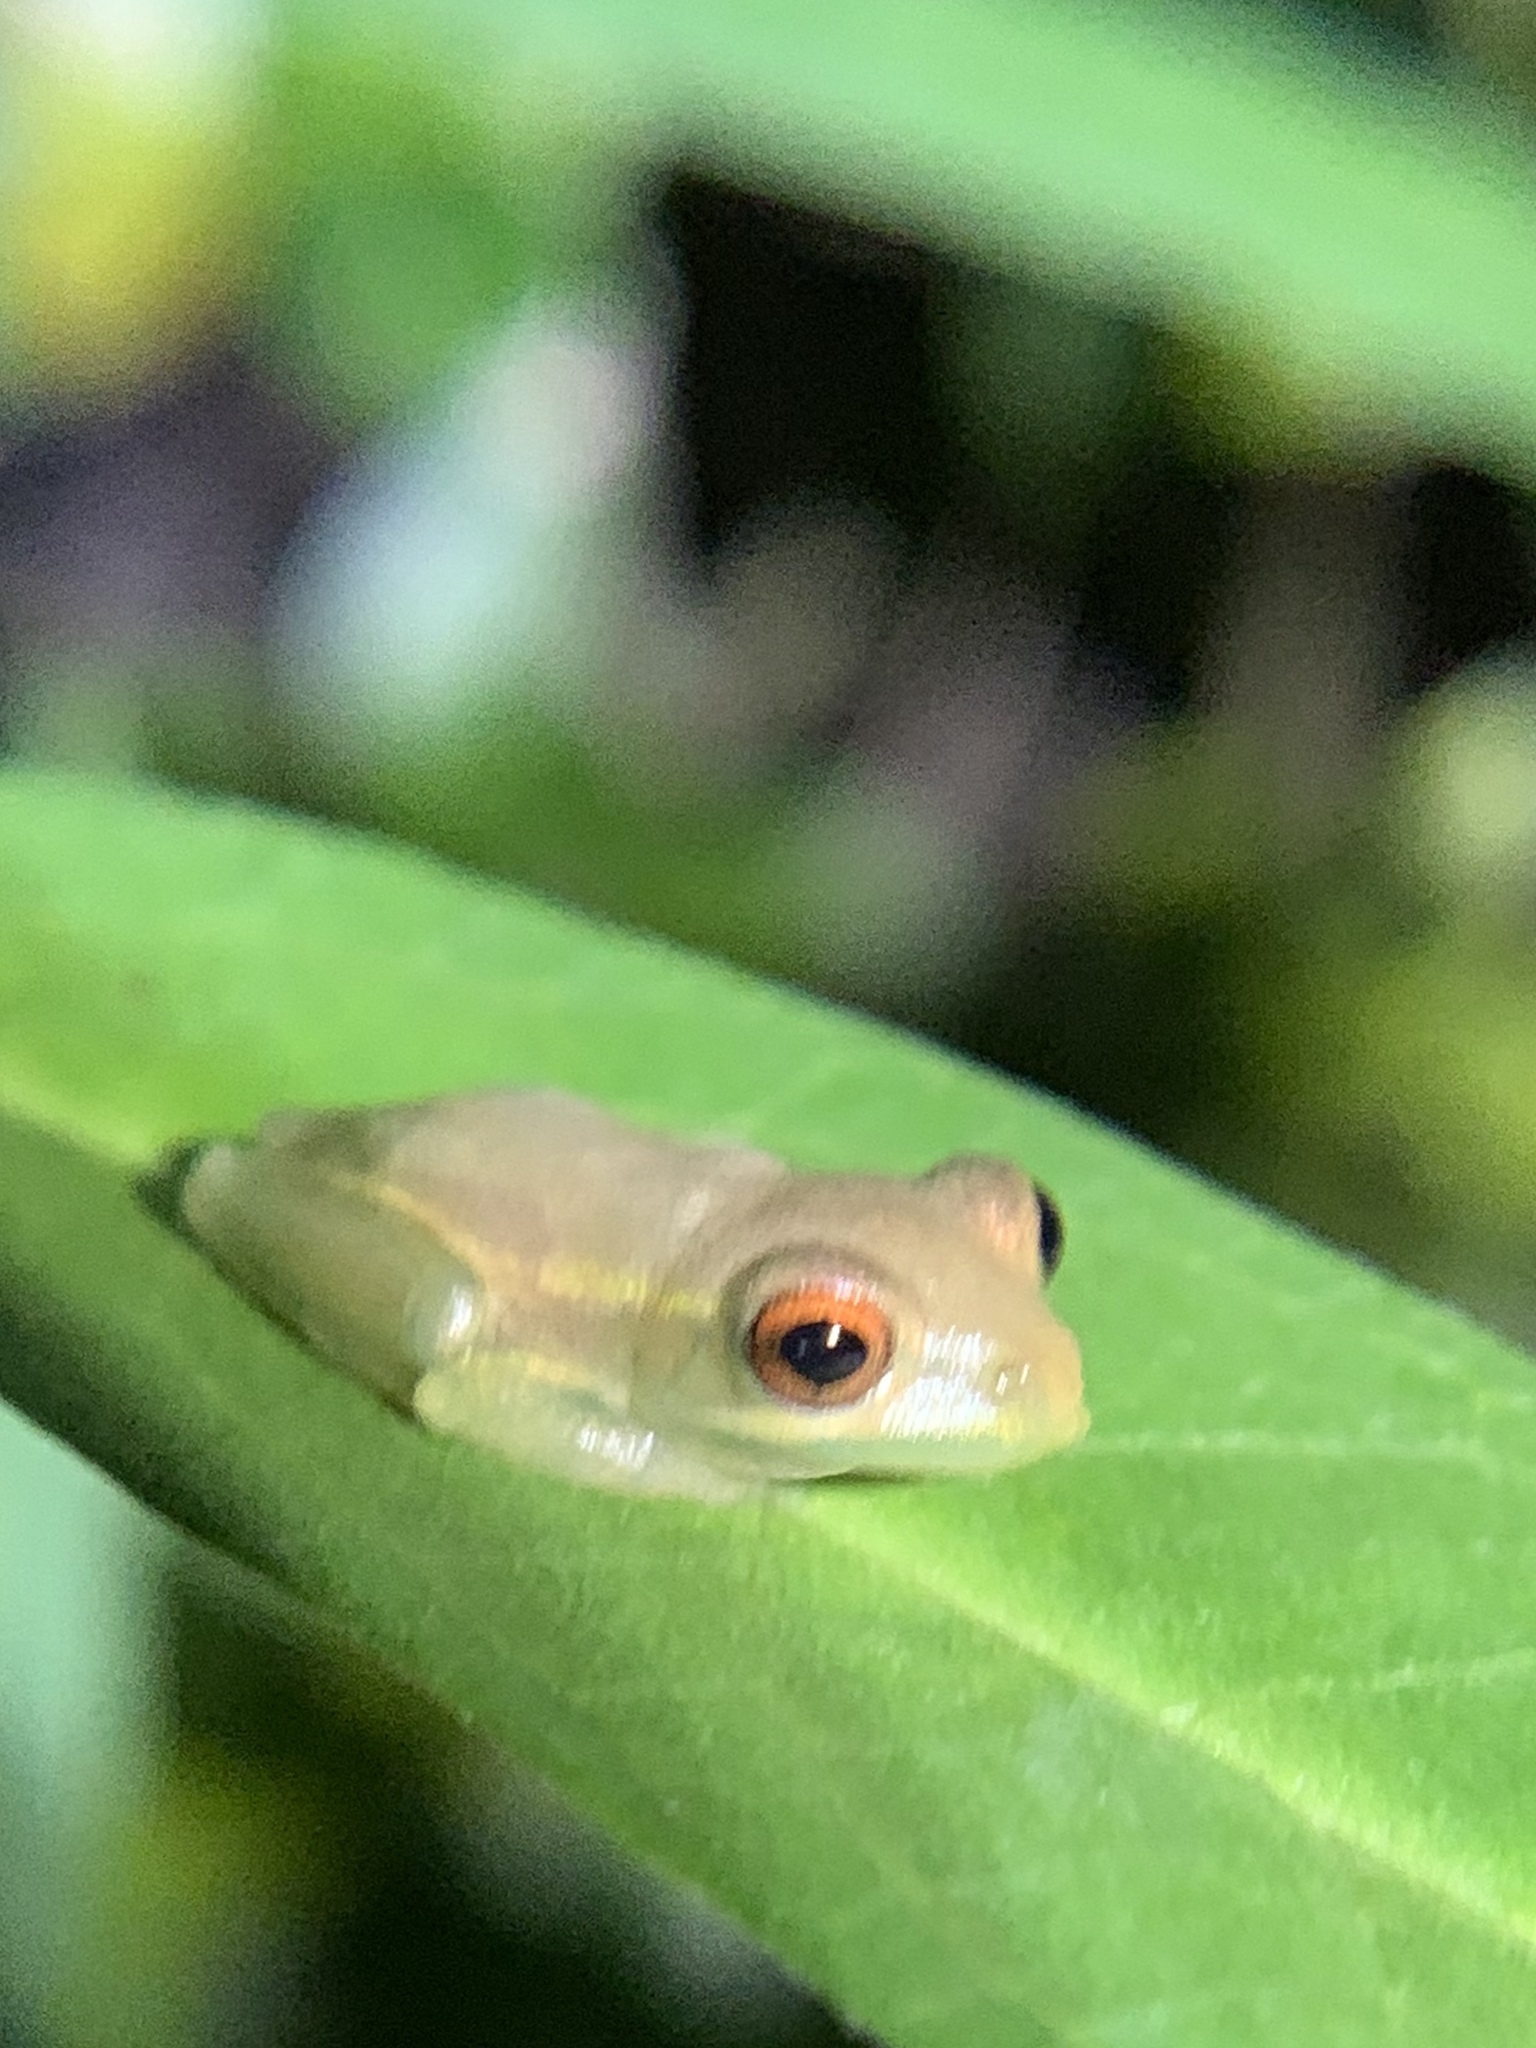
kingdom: Animalia
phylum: Chordata
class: Amphibia
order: Anura
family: Hylidae
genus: Osteopilus
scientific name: Osteopilus septentrionalis
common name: Cuban treefrog
